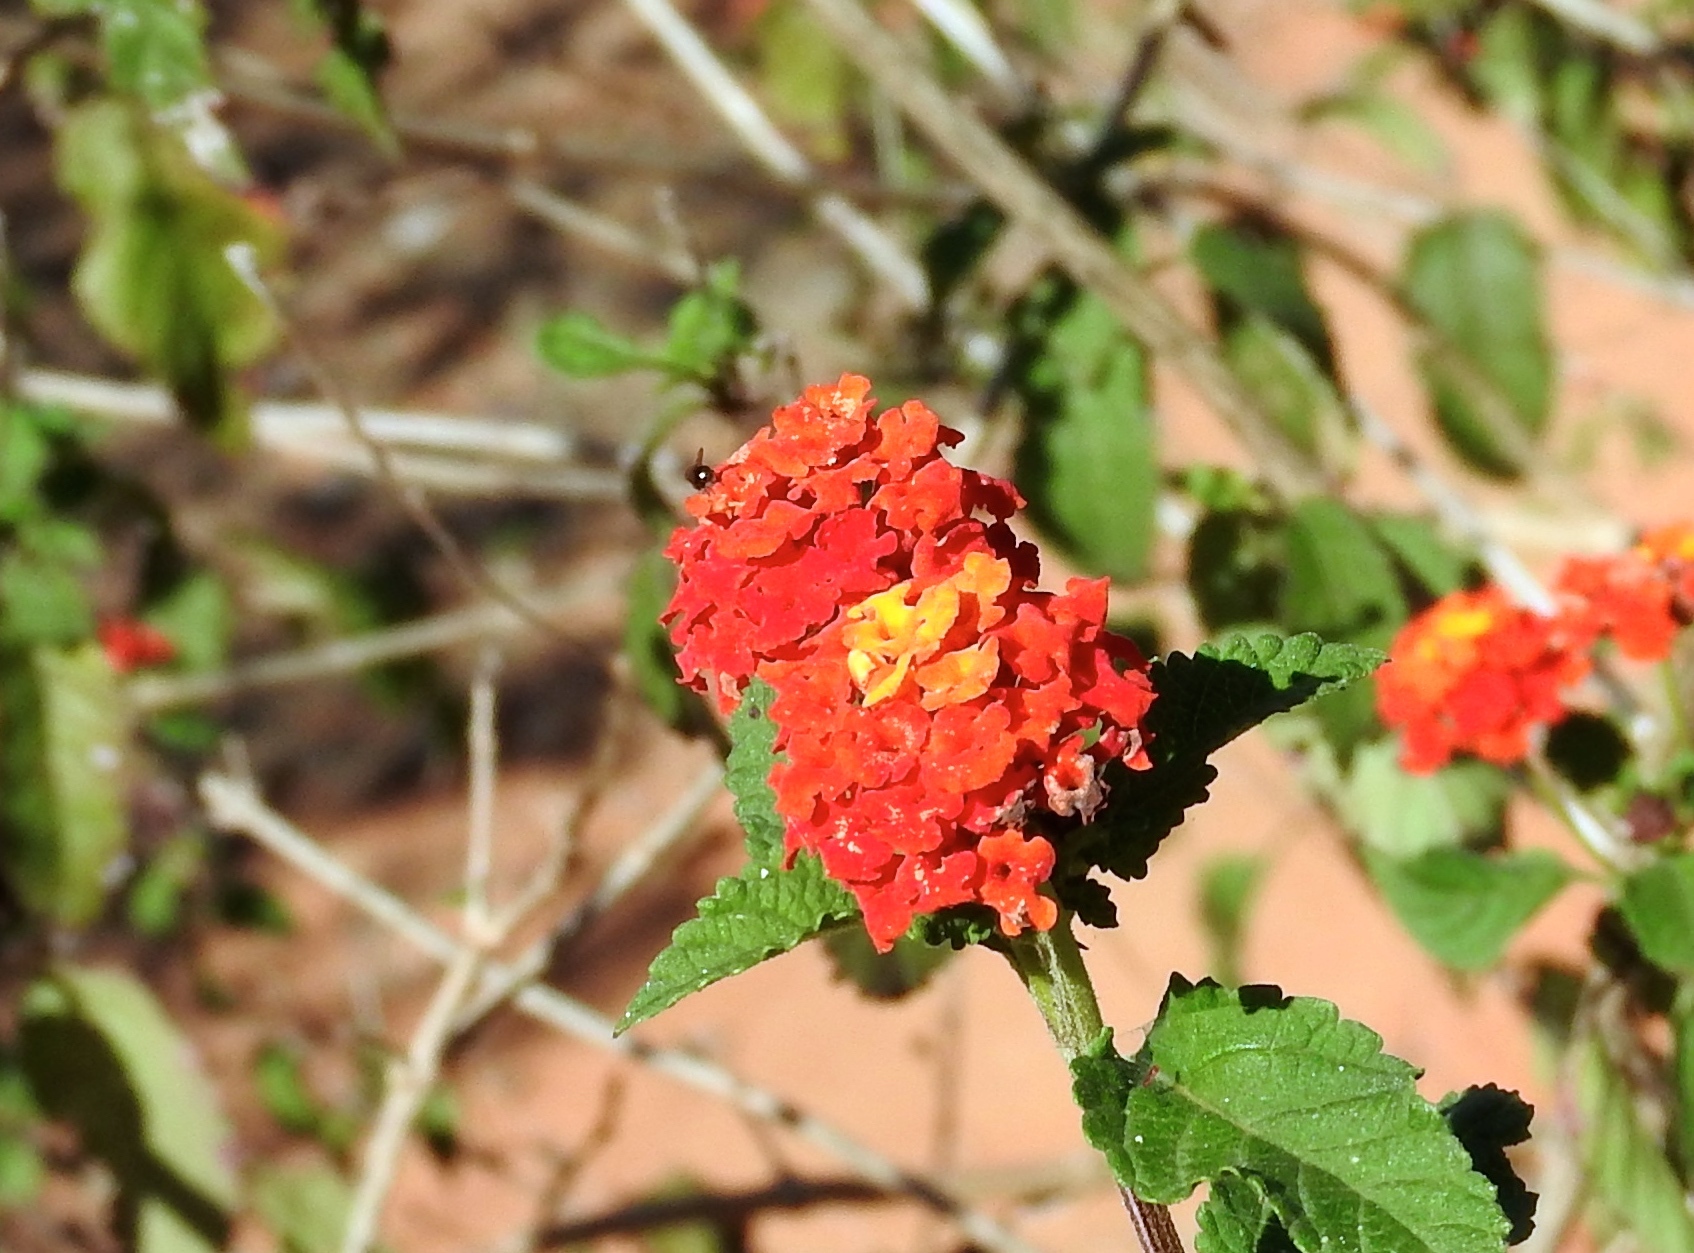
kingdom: Plantae
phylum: Tracheophyta
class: Magnoliopsida
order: Lamiales
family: Verbenaceae
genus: Lantana
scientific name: Lantana camara
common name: Lantana
